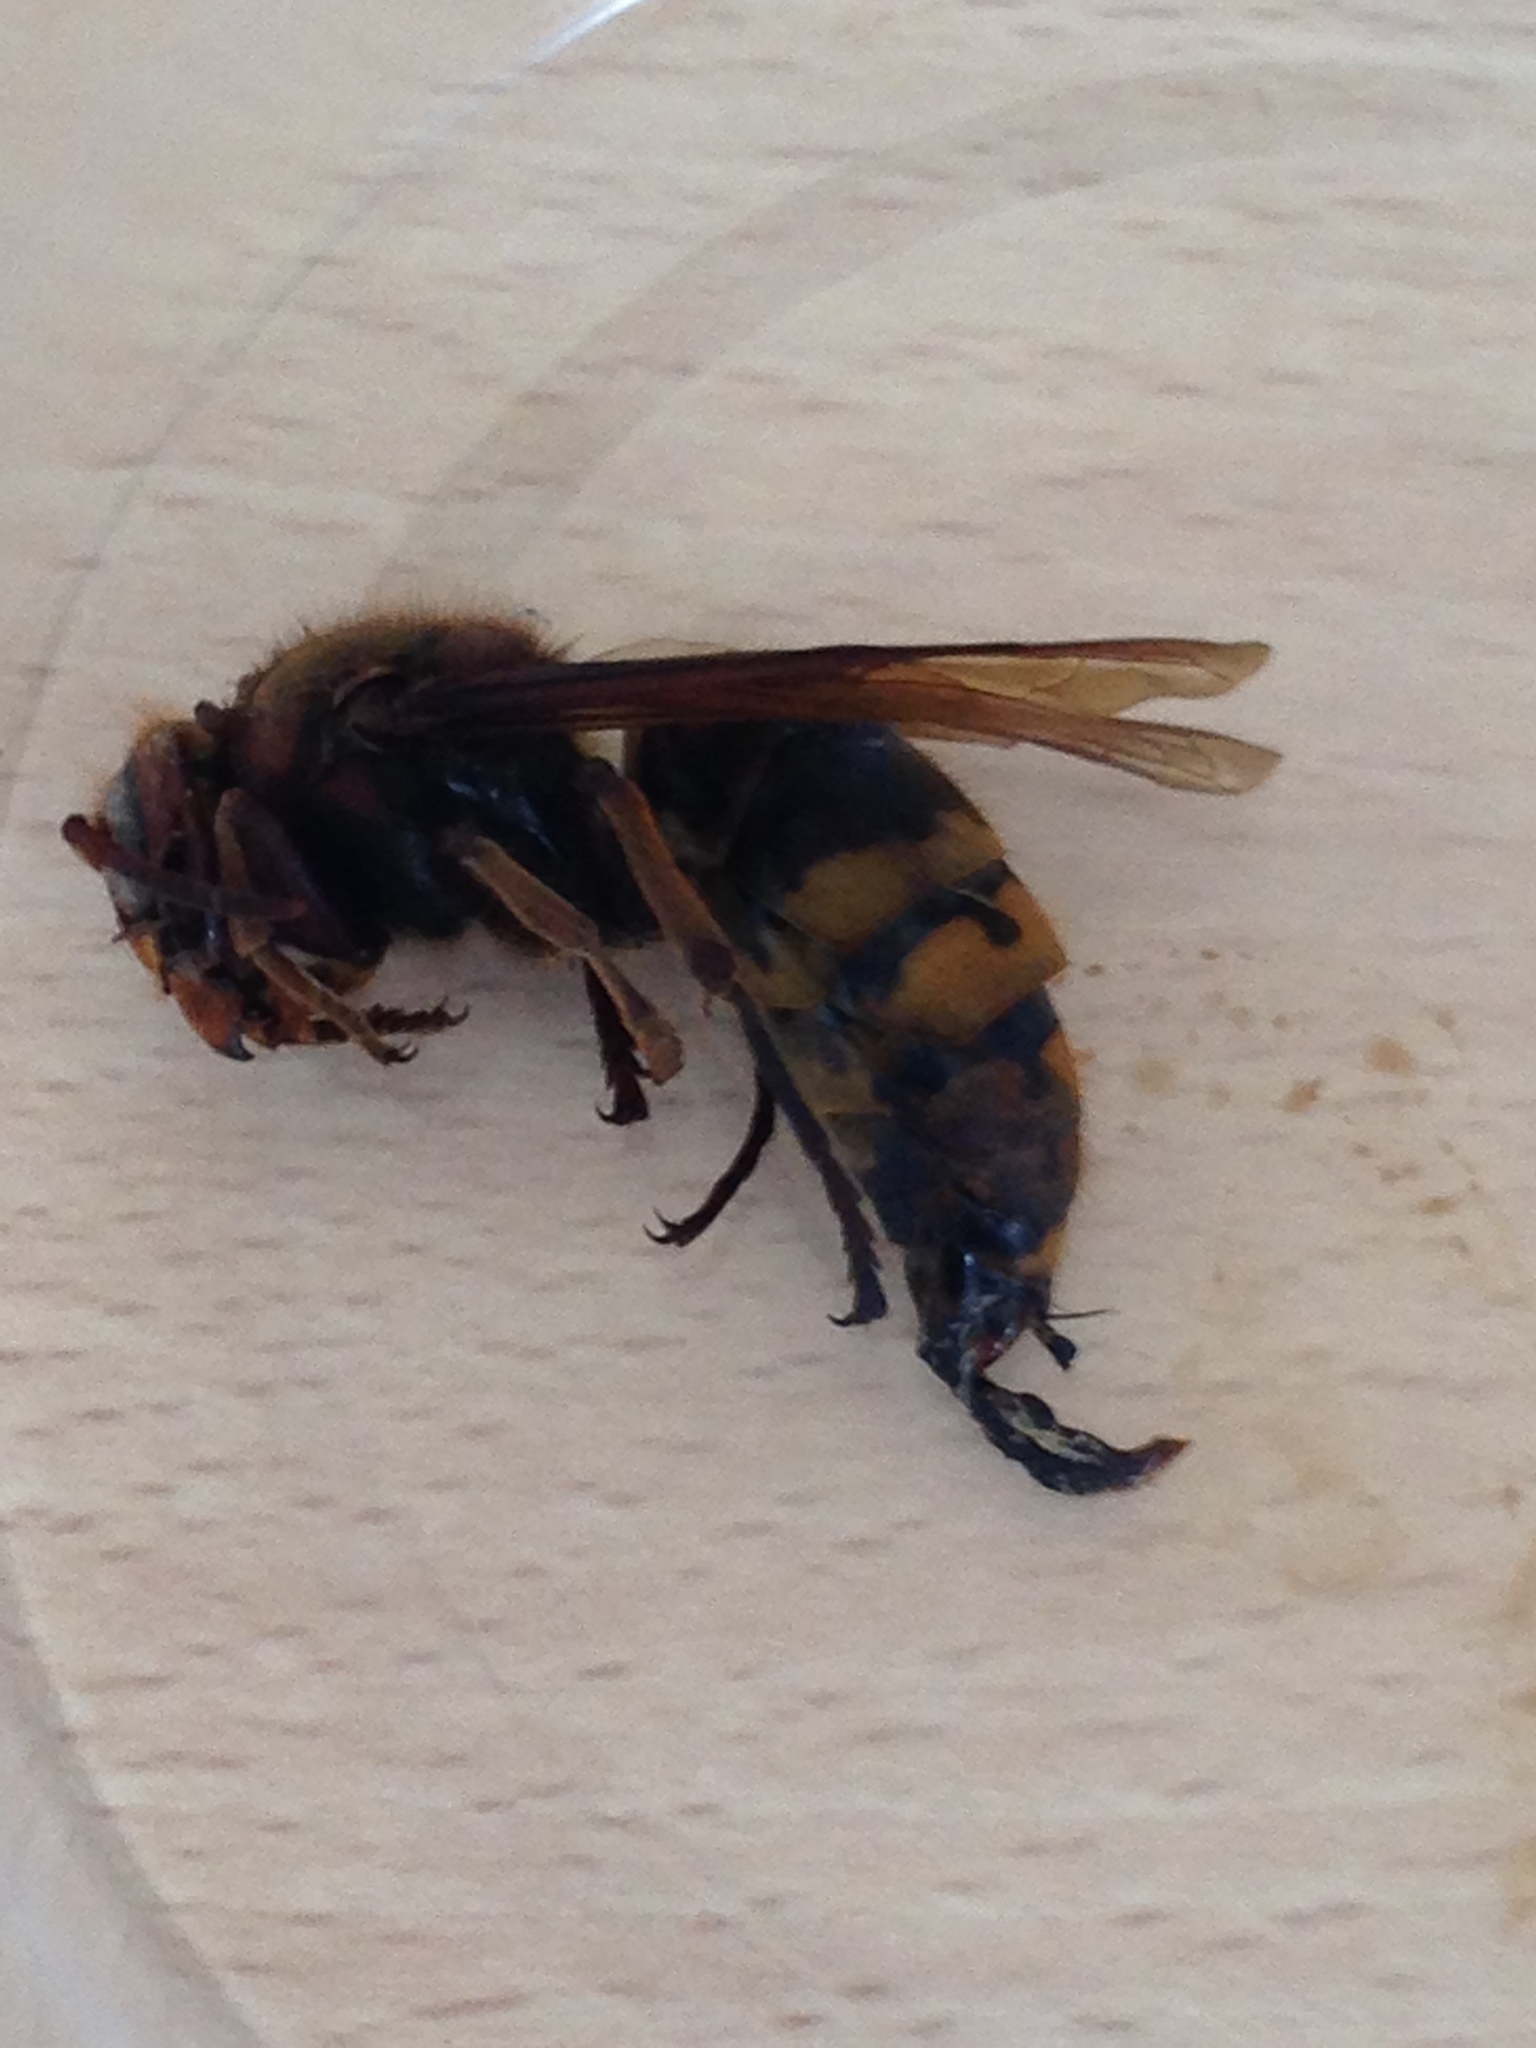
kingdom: Animalia
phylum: Arthropoda
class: Insecta
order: Hymenoptera
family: Vespidae
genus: Vespa
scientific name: Vespa crabro
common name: Hornet
